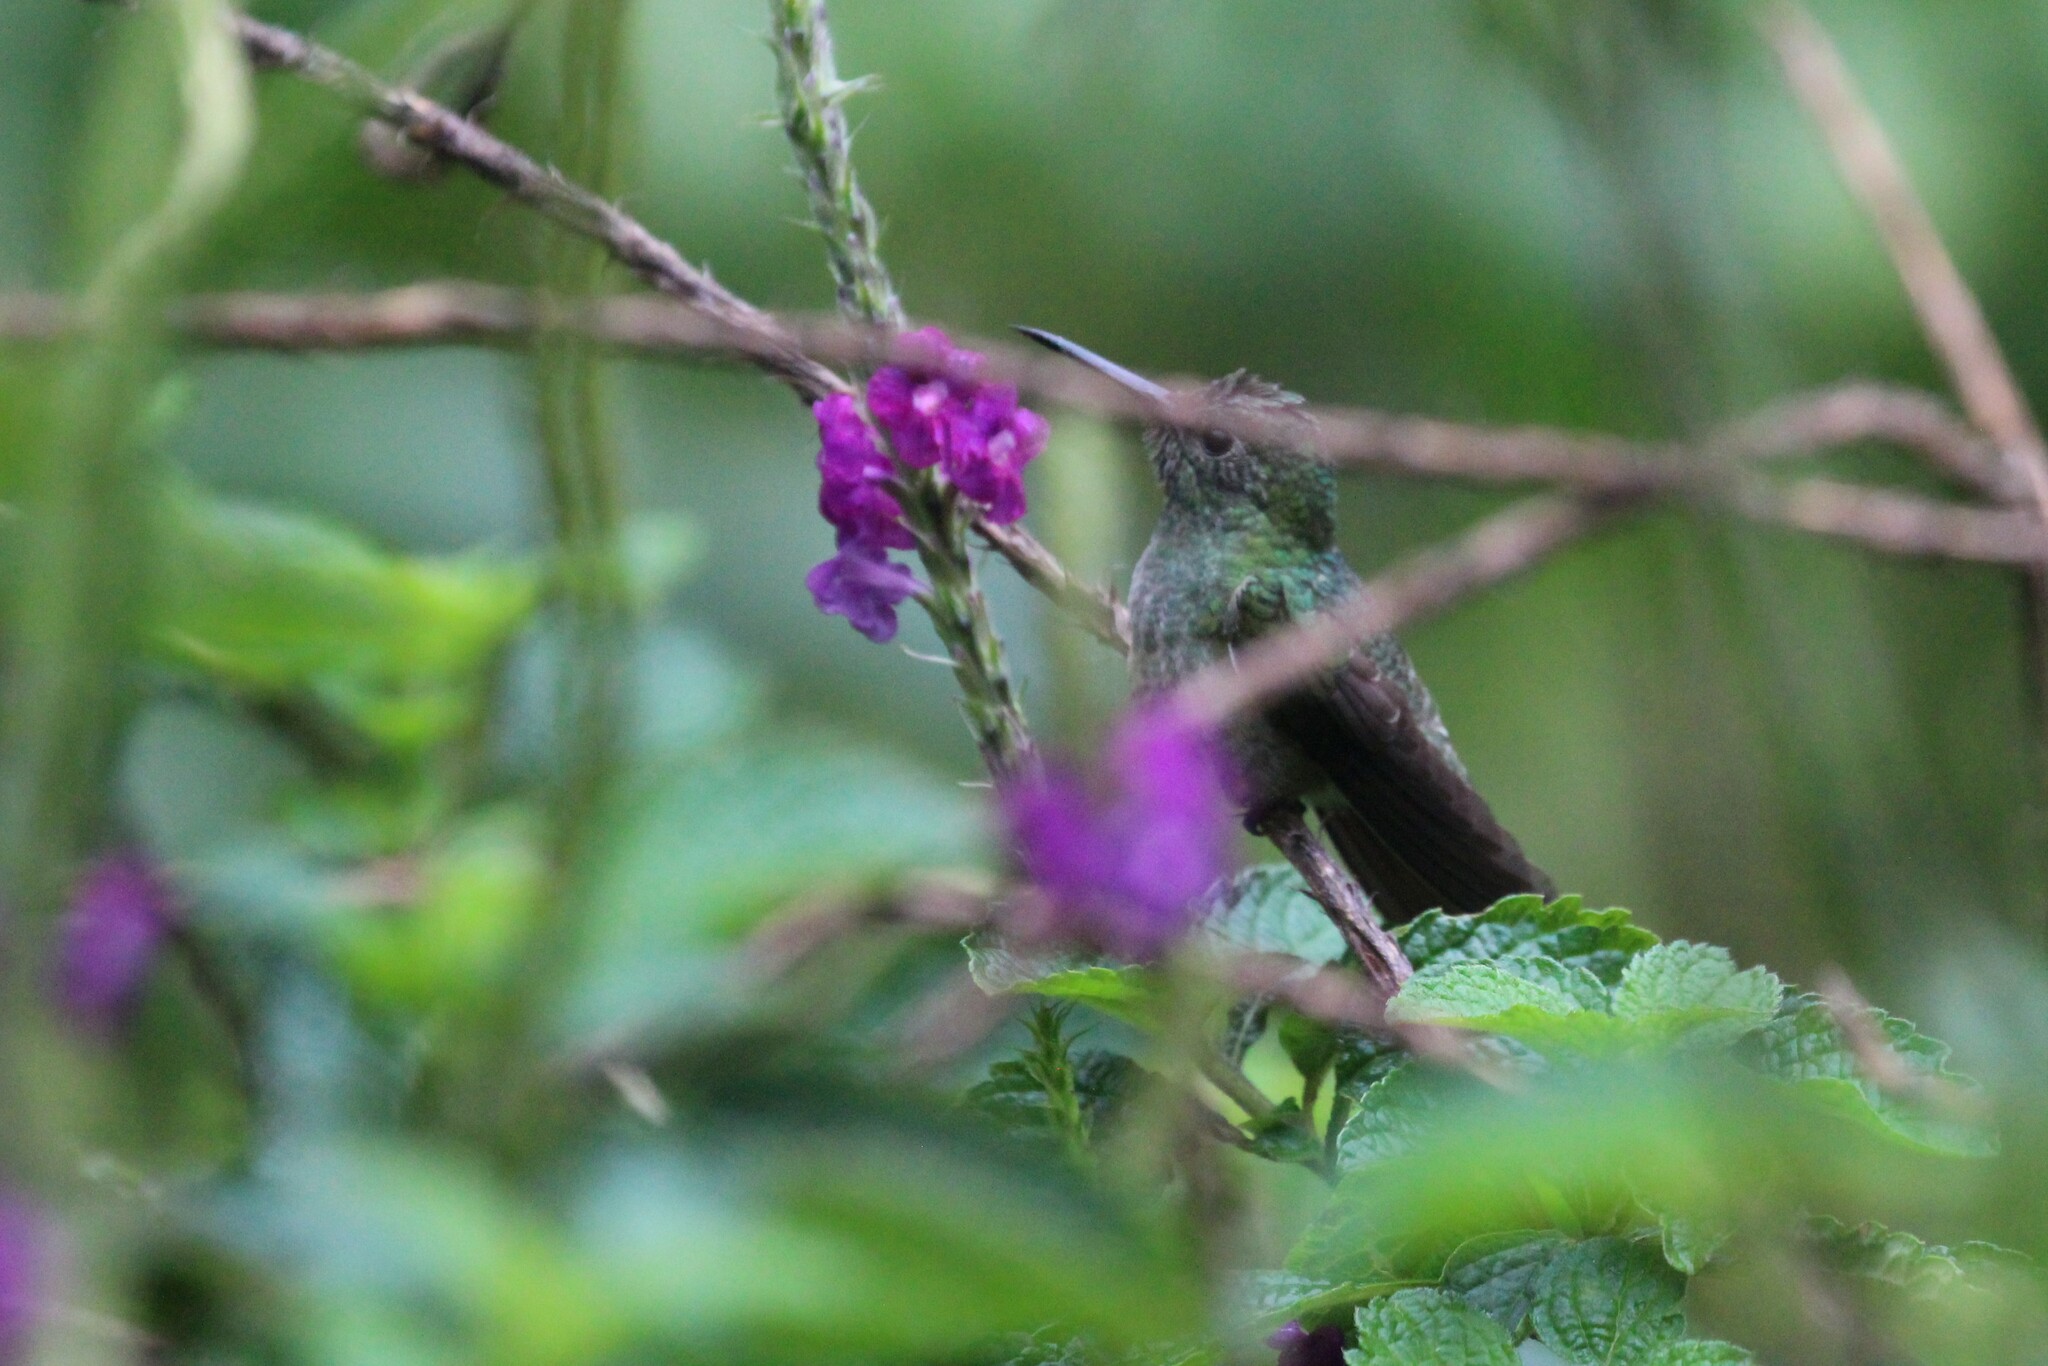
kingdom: Animalia
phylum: Chordata
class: Aves
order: Apodiformes
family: Trochilidae
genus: Phaeochroa
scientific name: Phaeochroa cuvierii
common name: Scaly-breasted hummingbird
